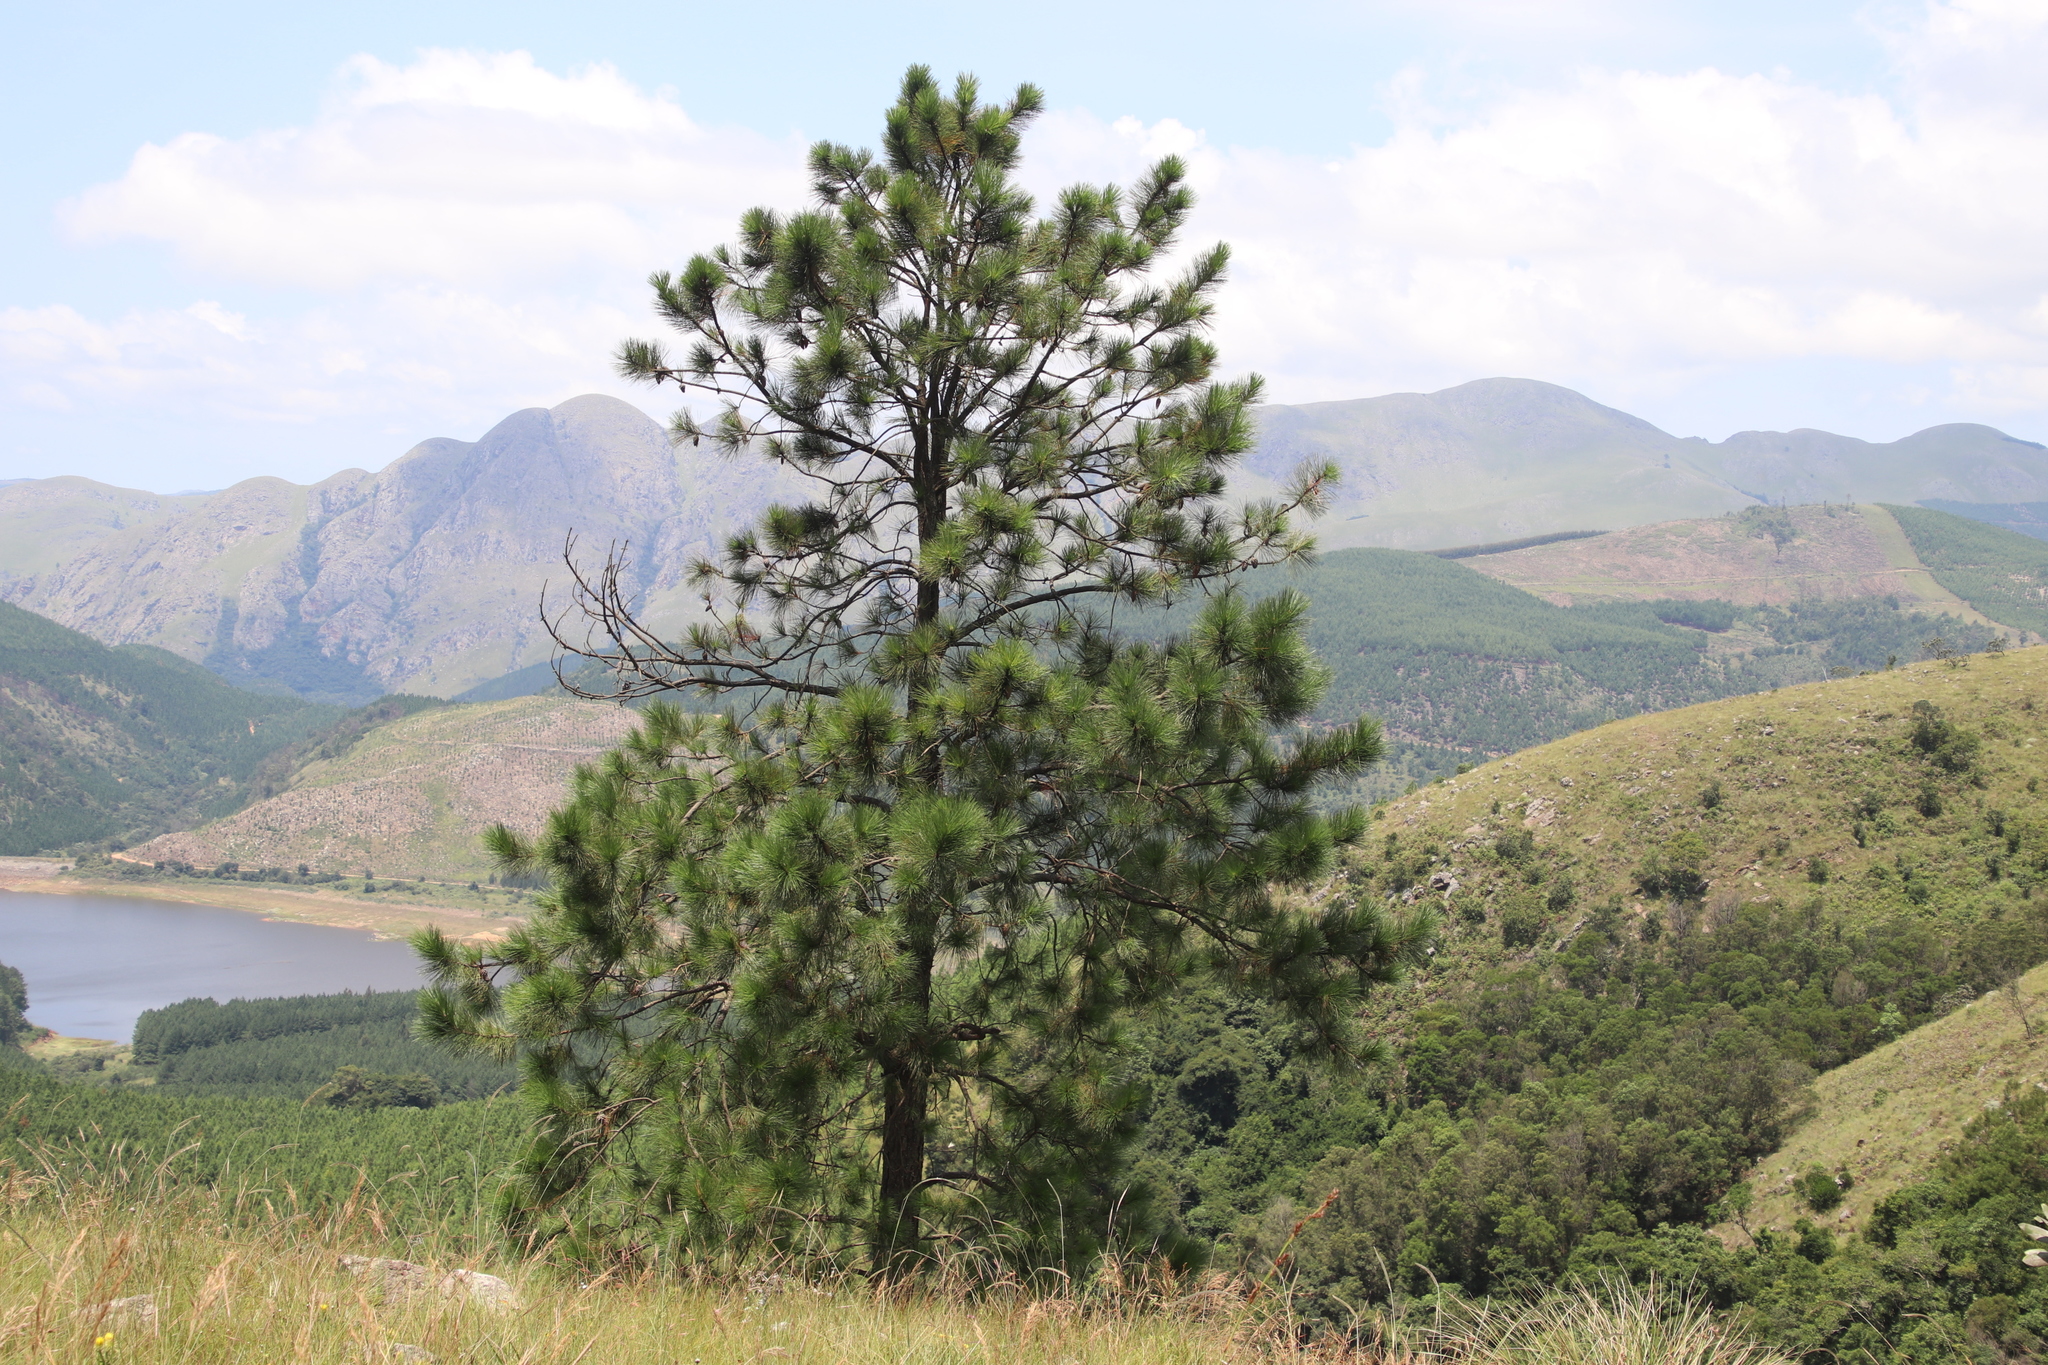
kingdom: Plantae
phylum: Tracheophyta
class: Pinopsida
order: Pinales
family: Pinaceae
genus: Pinus
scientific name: Pinus elliottii
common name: Slash pine
